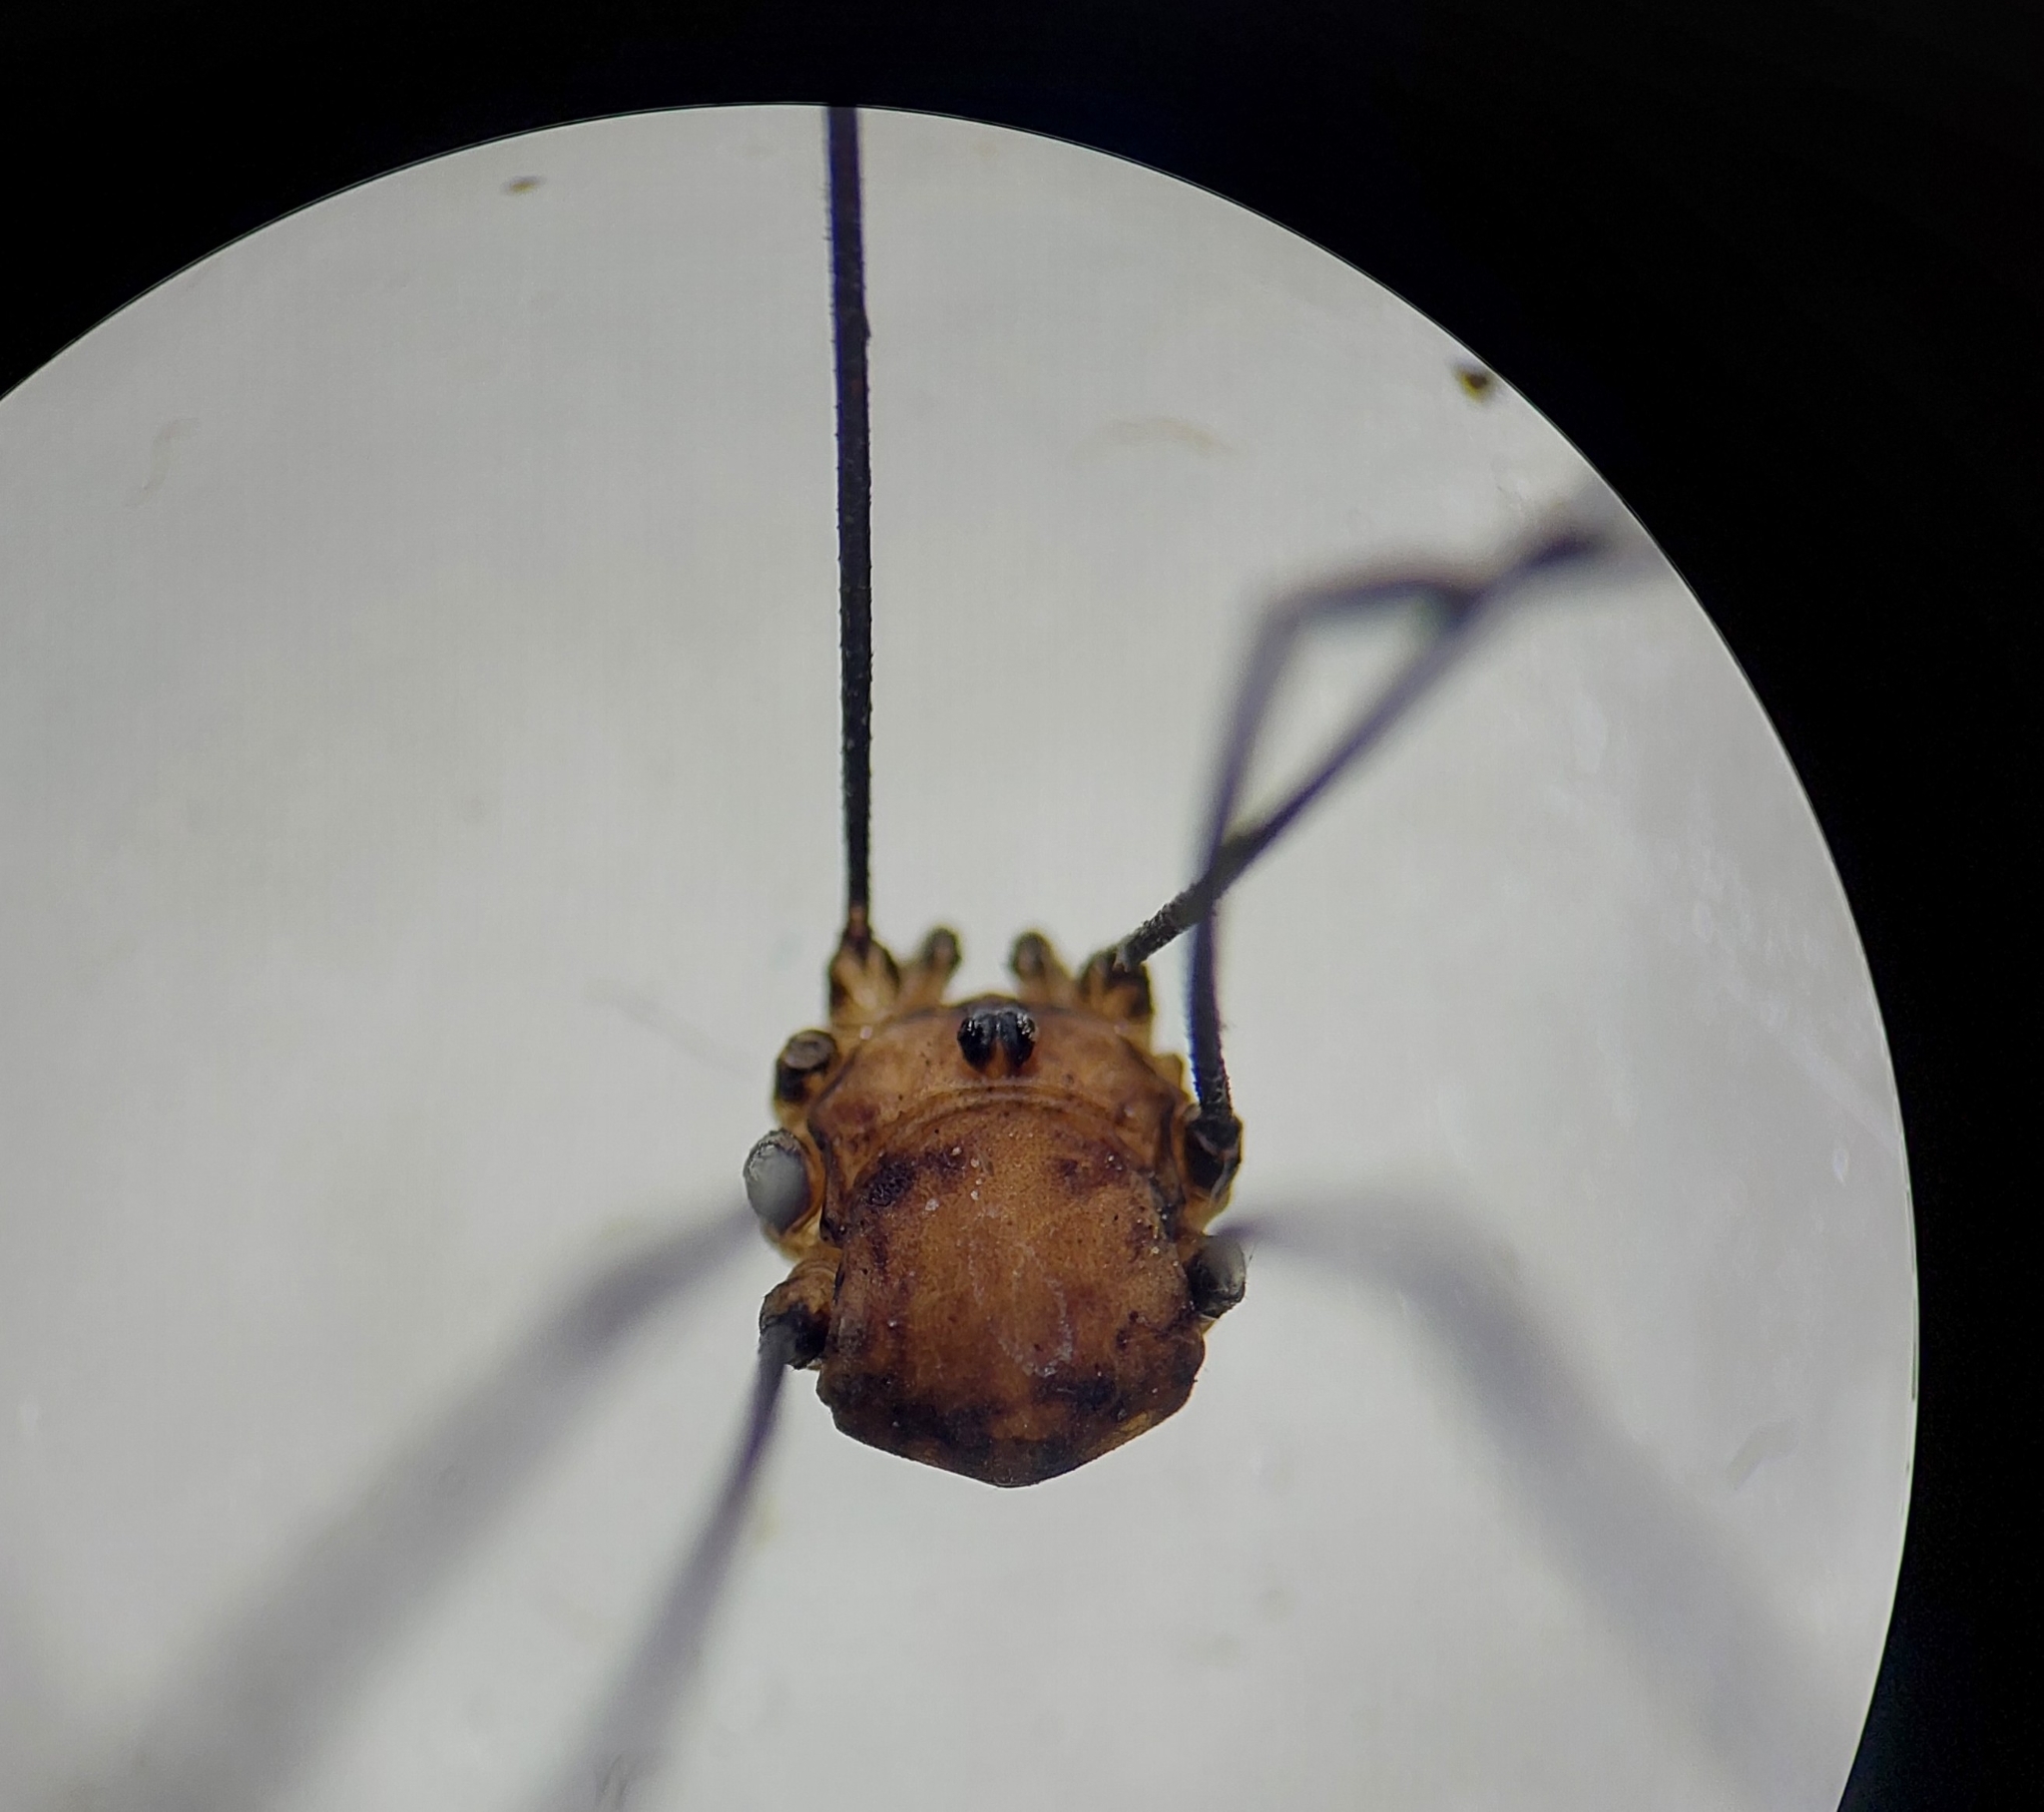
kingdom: Animalia
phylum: Arthropoda
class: Arachnida
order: Opiliones
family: Sclerosomatidae
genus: Leiobunum
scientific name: Leiobunum rotundum
